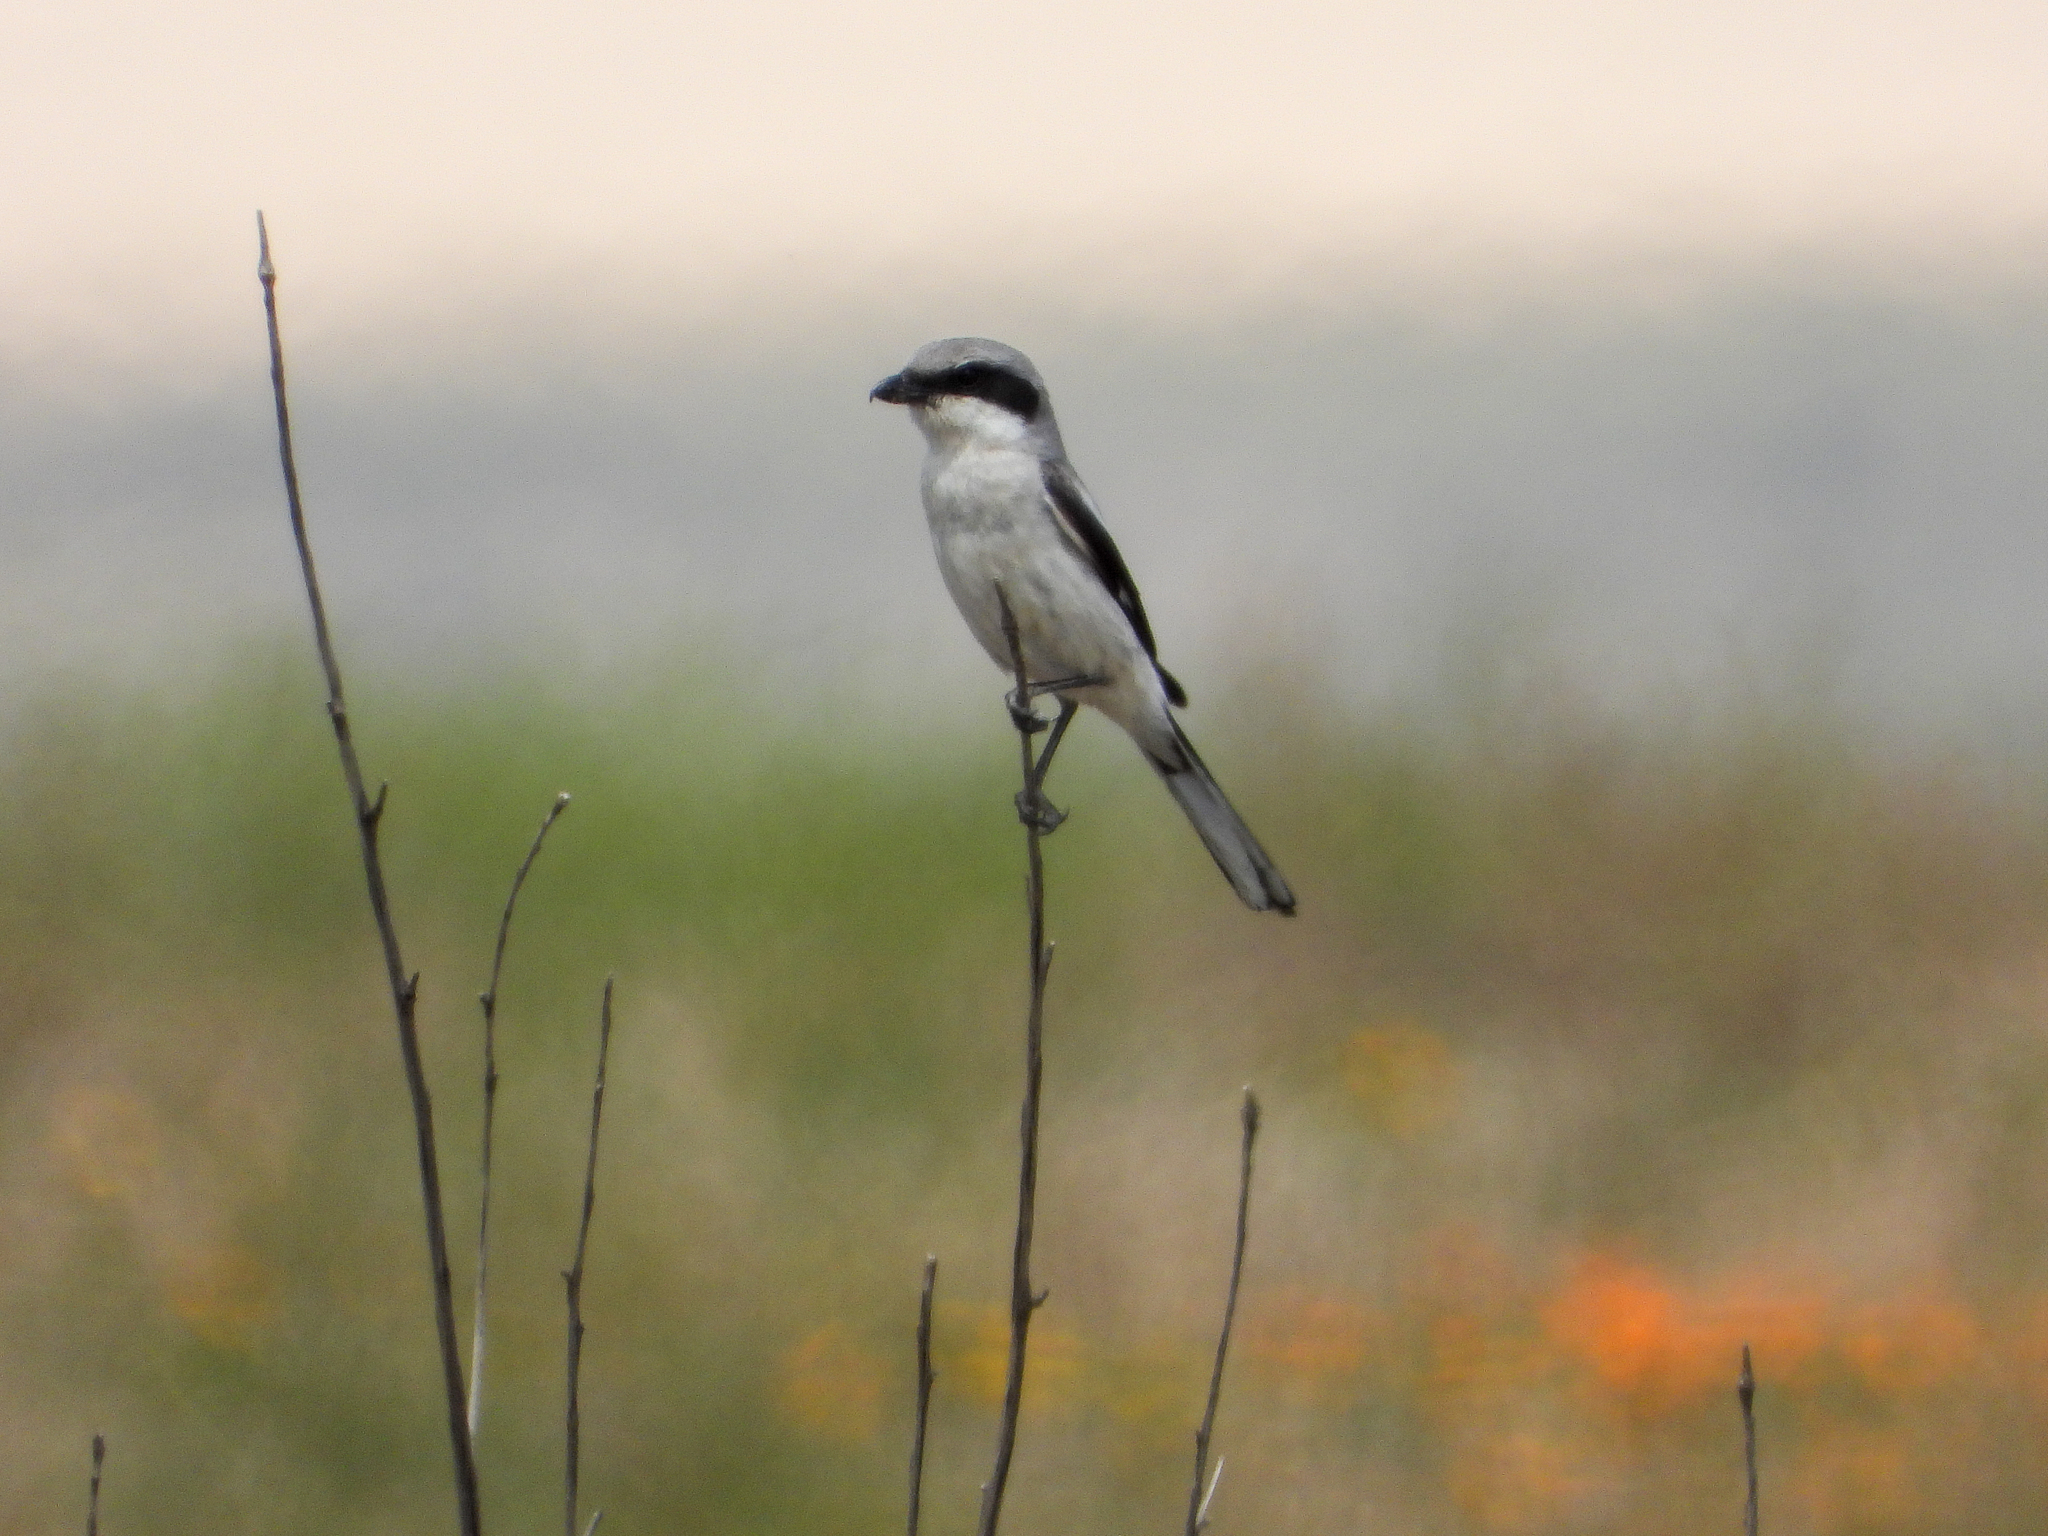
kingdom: Animalia
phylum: Chordata
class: Aves
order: Passeriformes
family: Laniidae
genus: Lanius
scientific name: Lanius ludovicianus
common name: Loggerhead shrike
